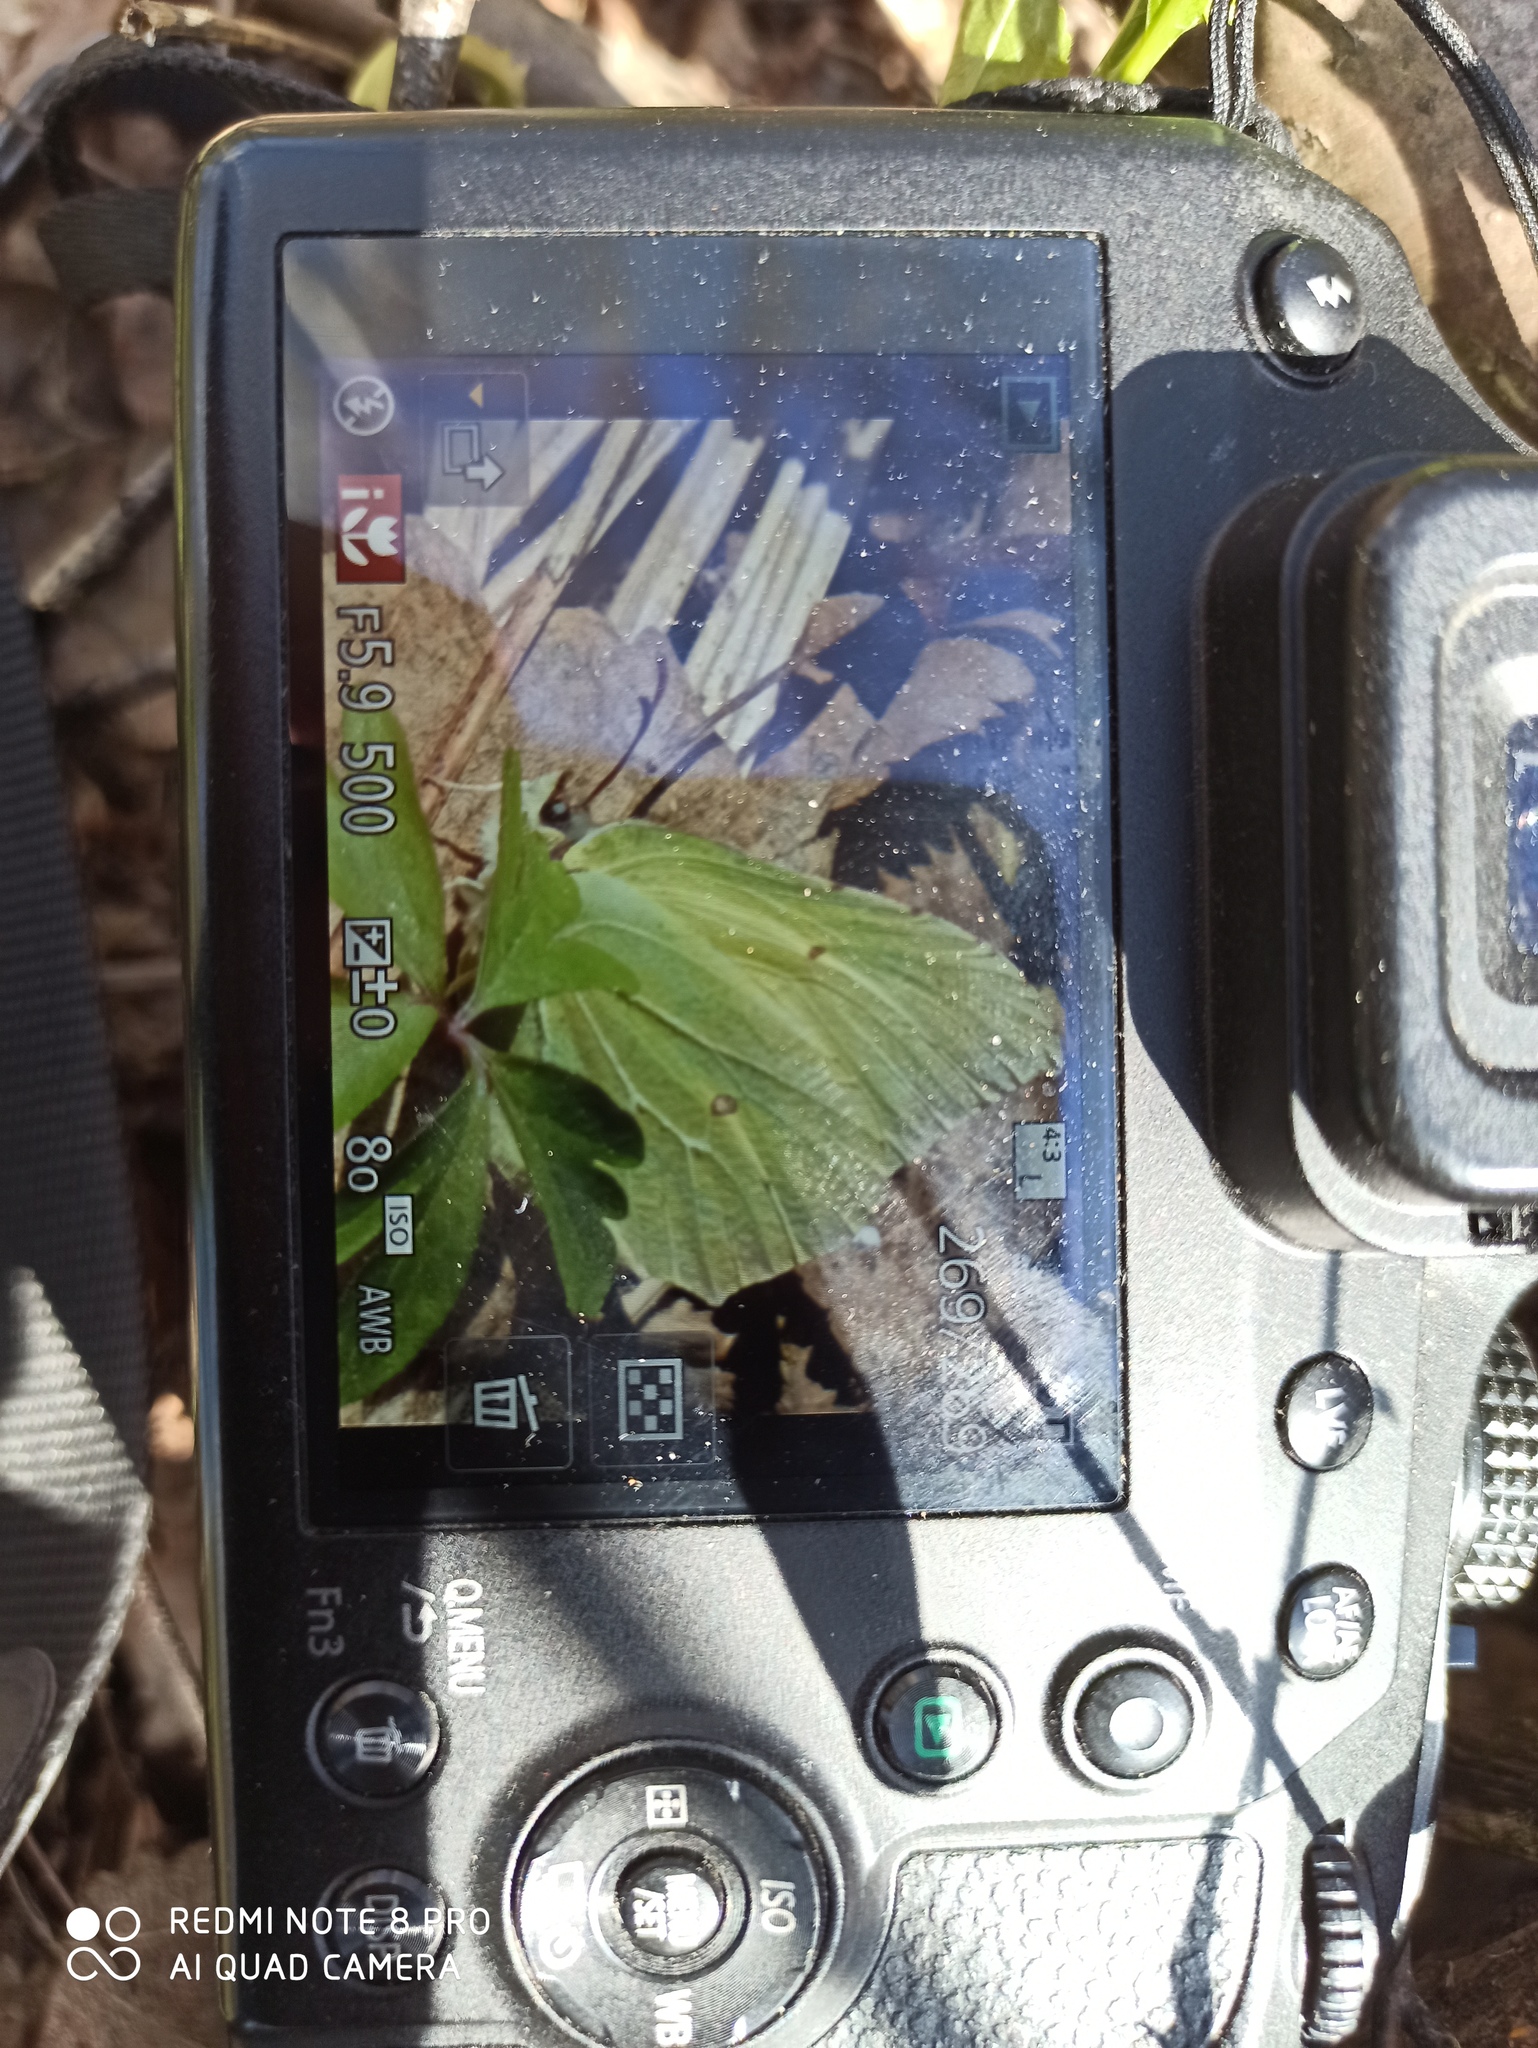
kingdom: Animalia
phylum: Arthropoda
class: Insecta
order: Lepidoptera
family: Pieridae
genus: Gonepteryx
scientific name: Gonepteryx rhamni
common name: Brimstone
